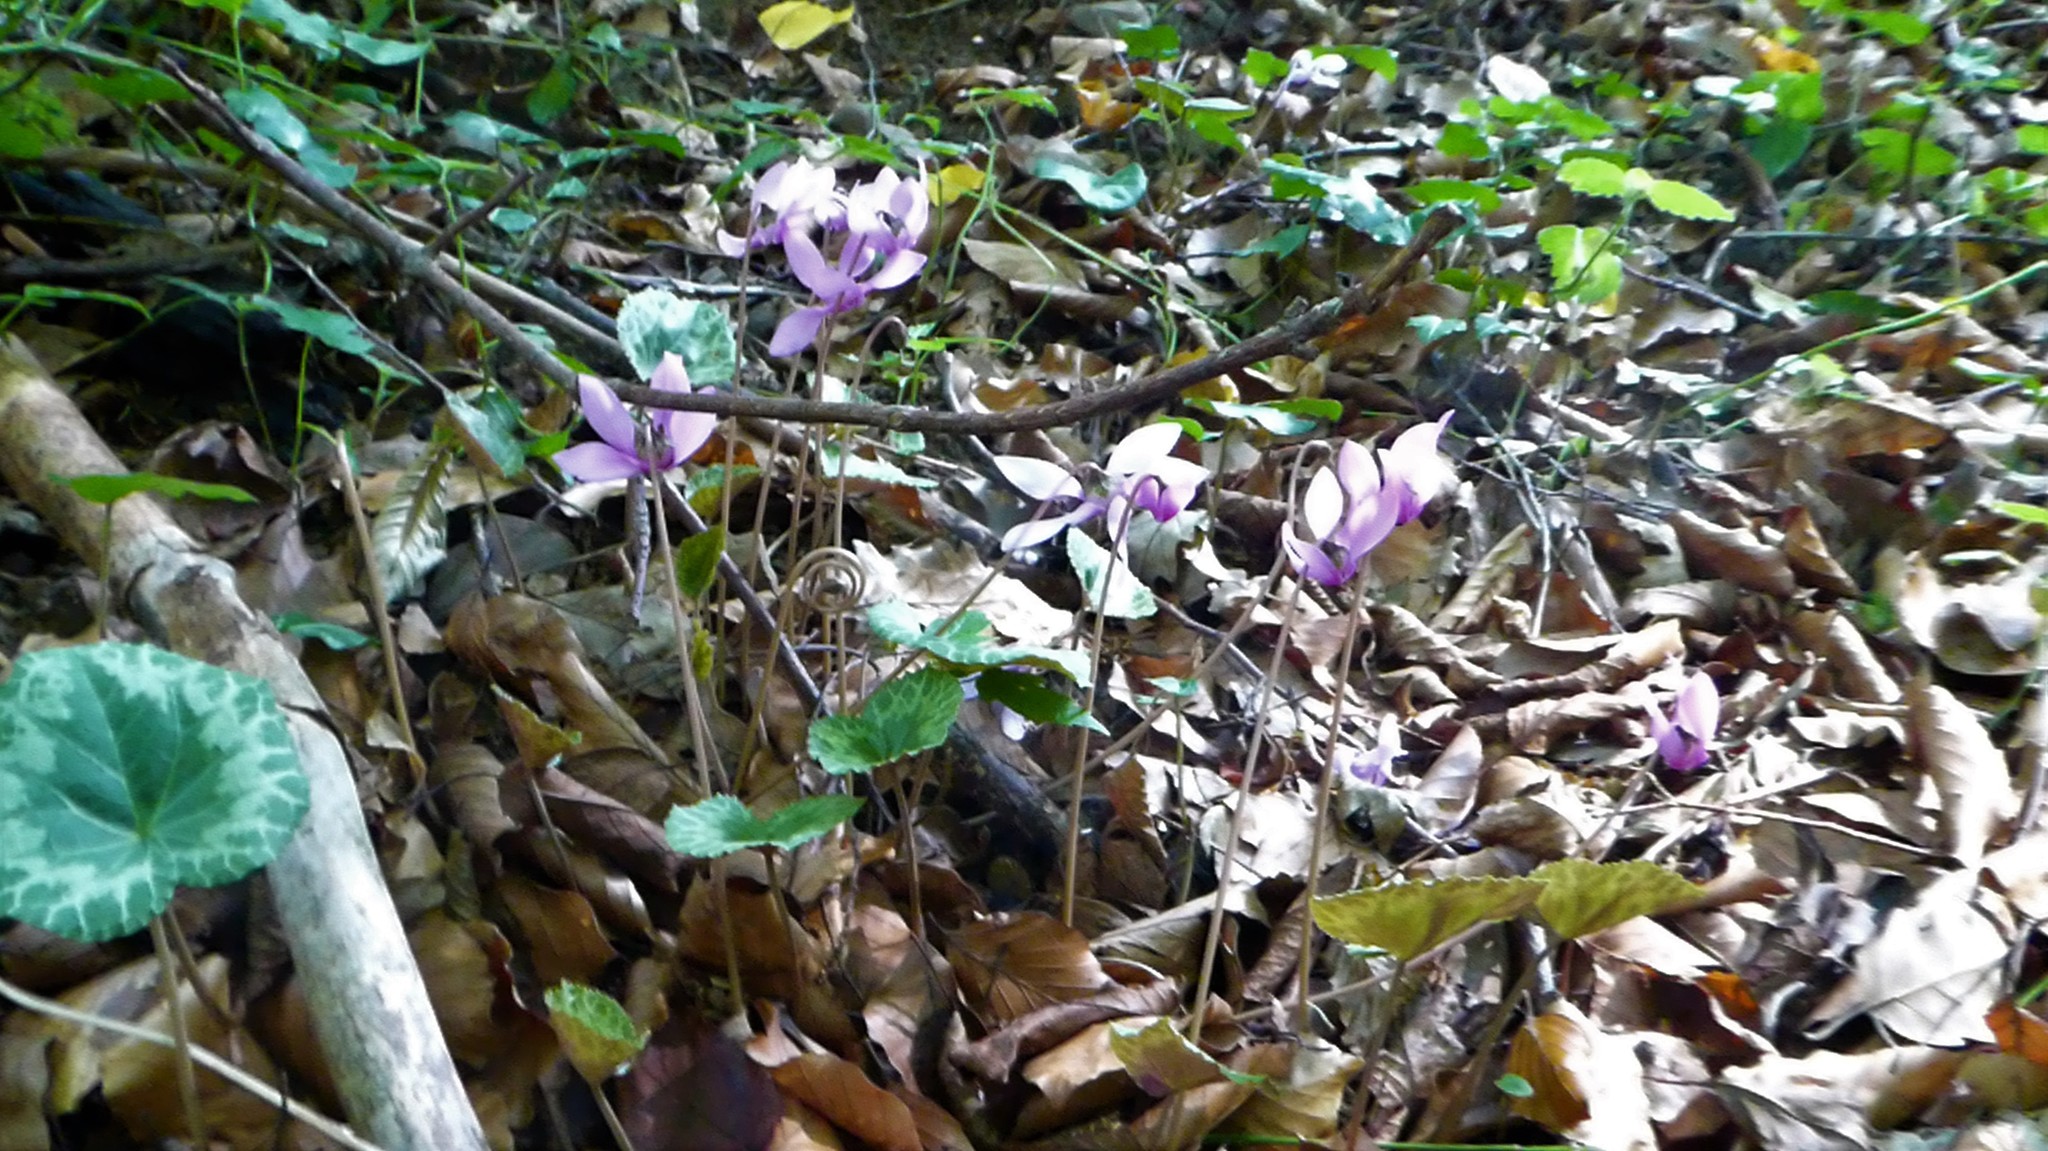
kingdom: Plantae
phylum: Tracheophyta
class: Magnoliopsida
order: Ericales
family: Primulaceae
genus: Cyclamen
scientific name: Cyclamen purpurascens
